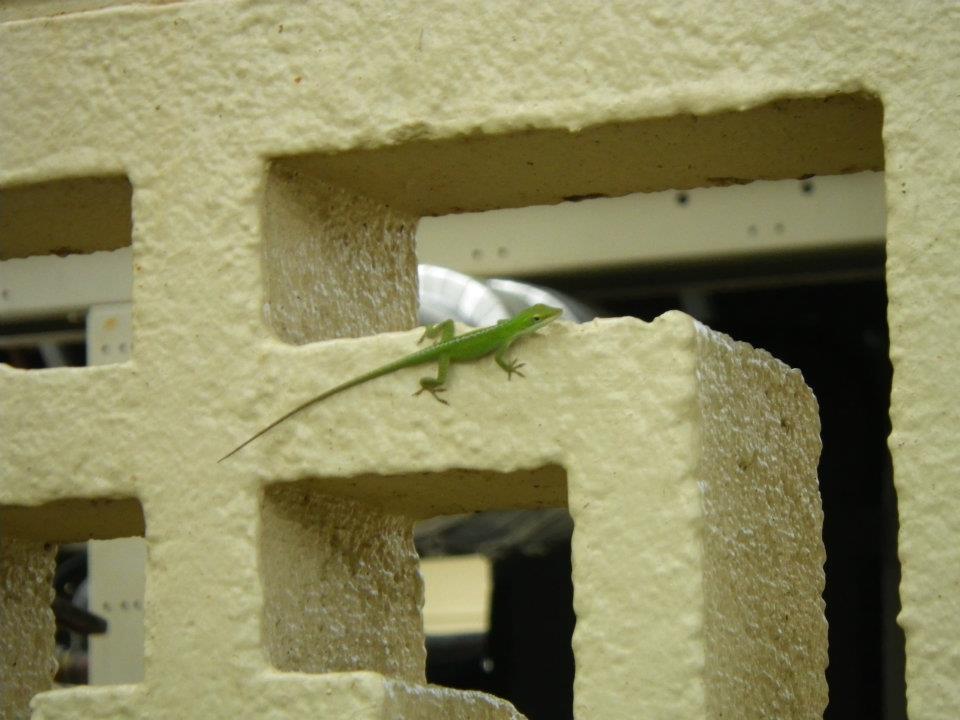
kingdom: Animalia
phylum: Chordata
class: Squamata
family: Dactyloidae
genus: Anolis
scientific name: Anolis carolinensis
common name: Green anole
